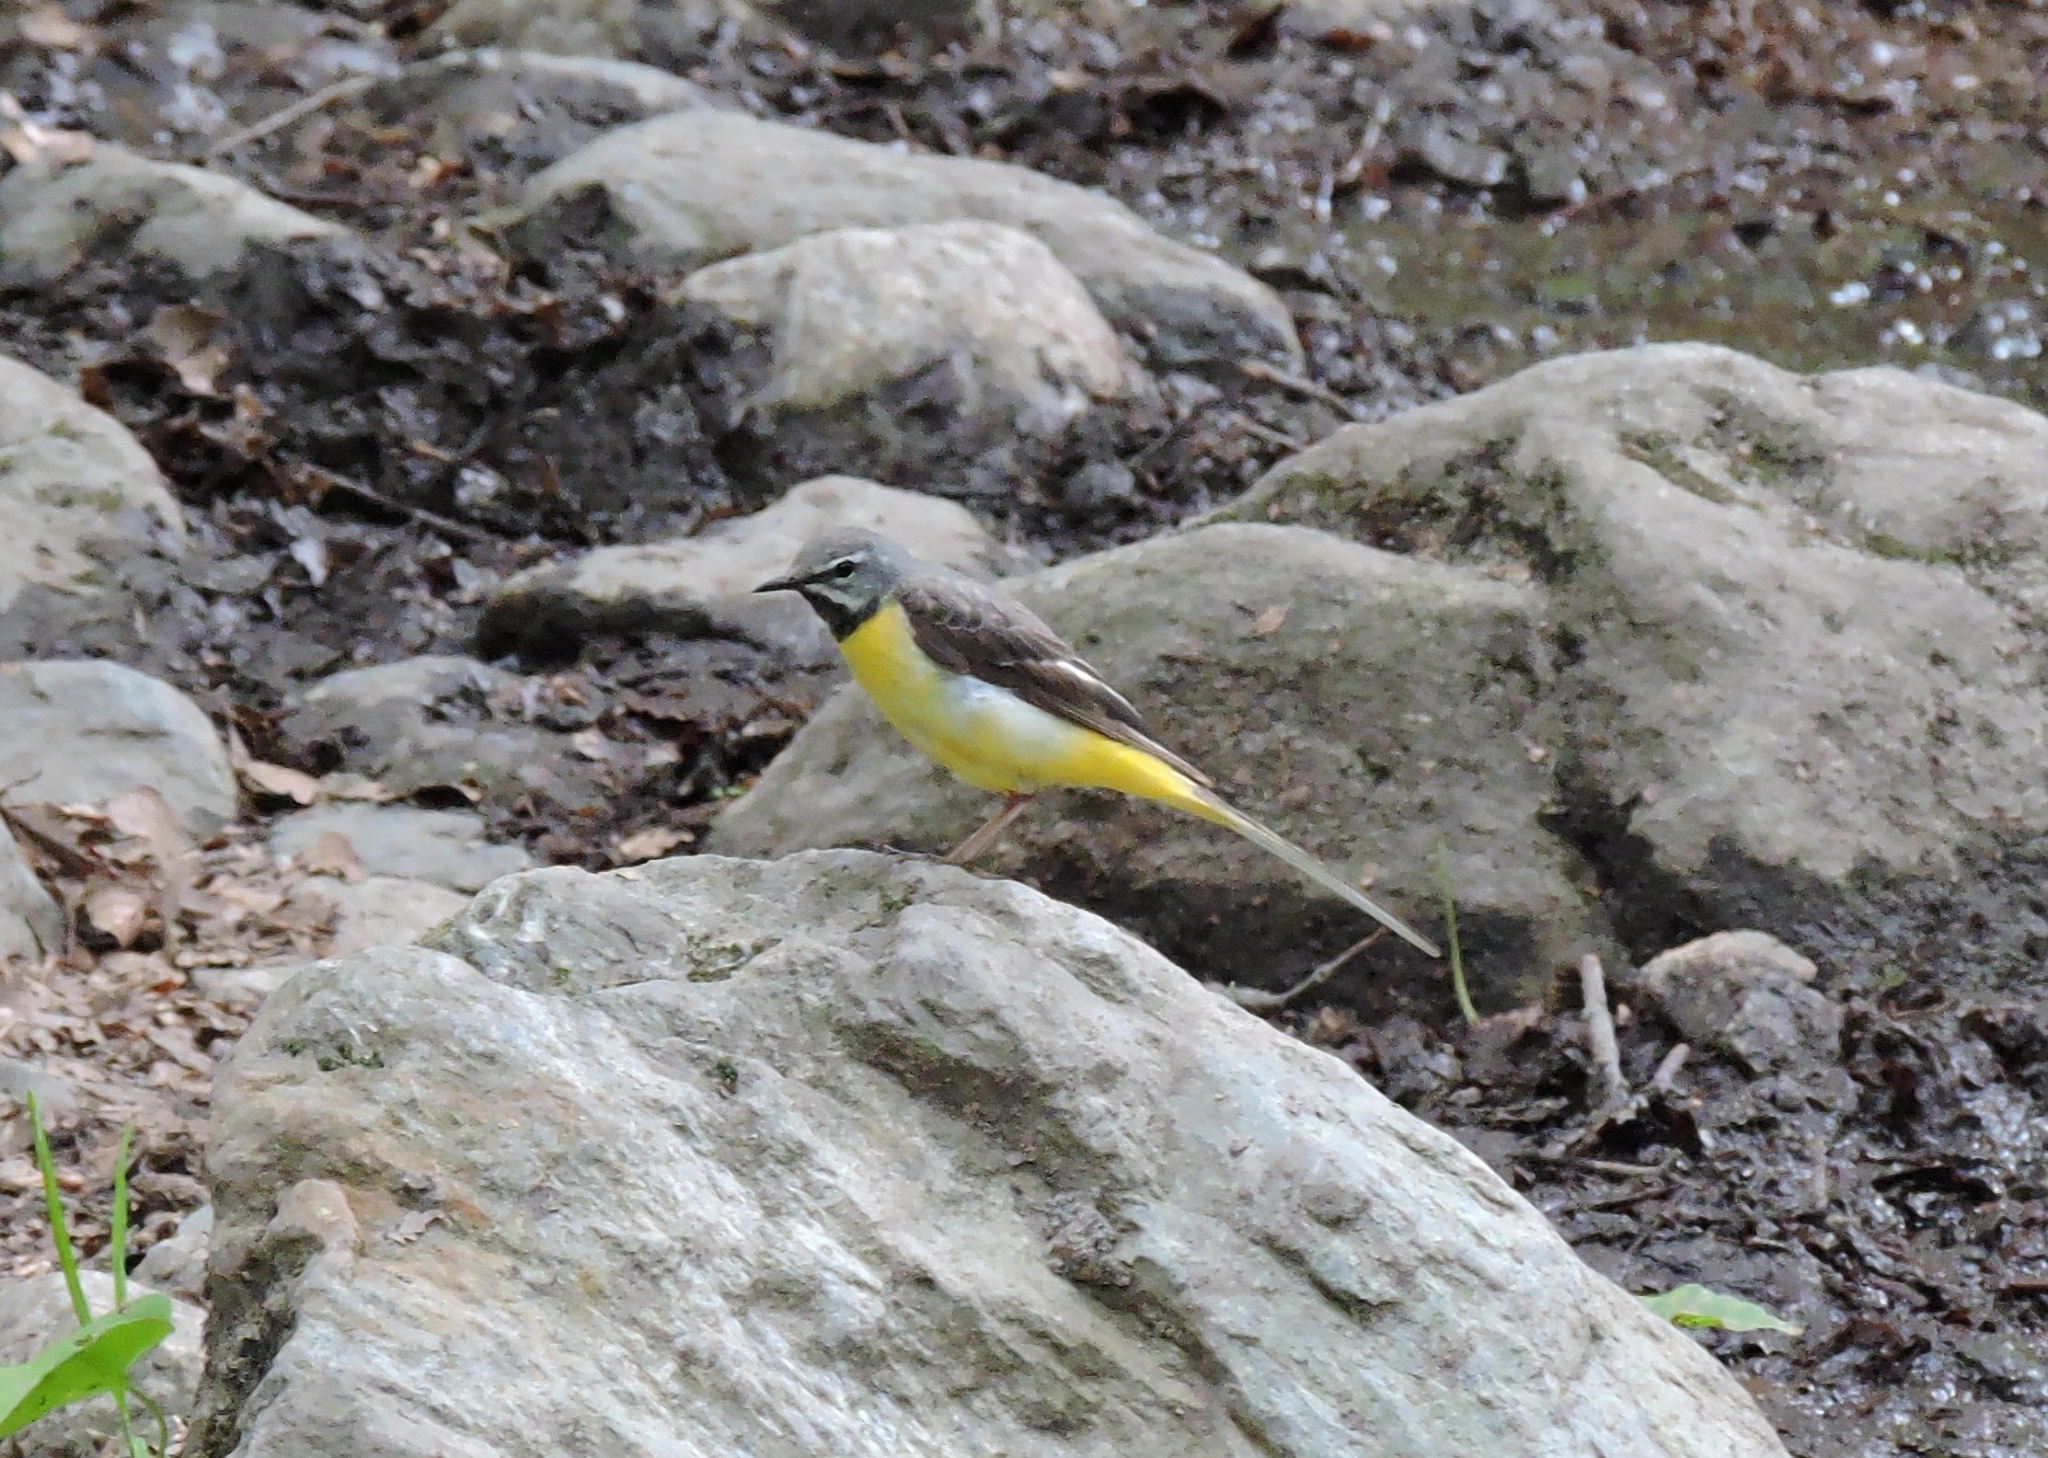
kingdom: Animalia
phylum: Chordata
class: Aves
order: Passeriformes
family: Motacillidae
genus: Motacilla
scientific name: Motacilla cinerea
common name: Grey wagtail
